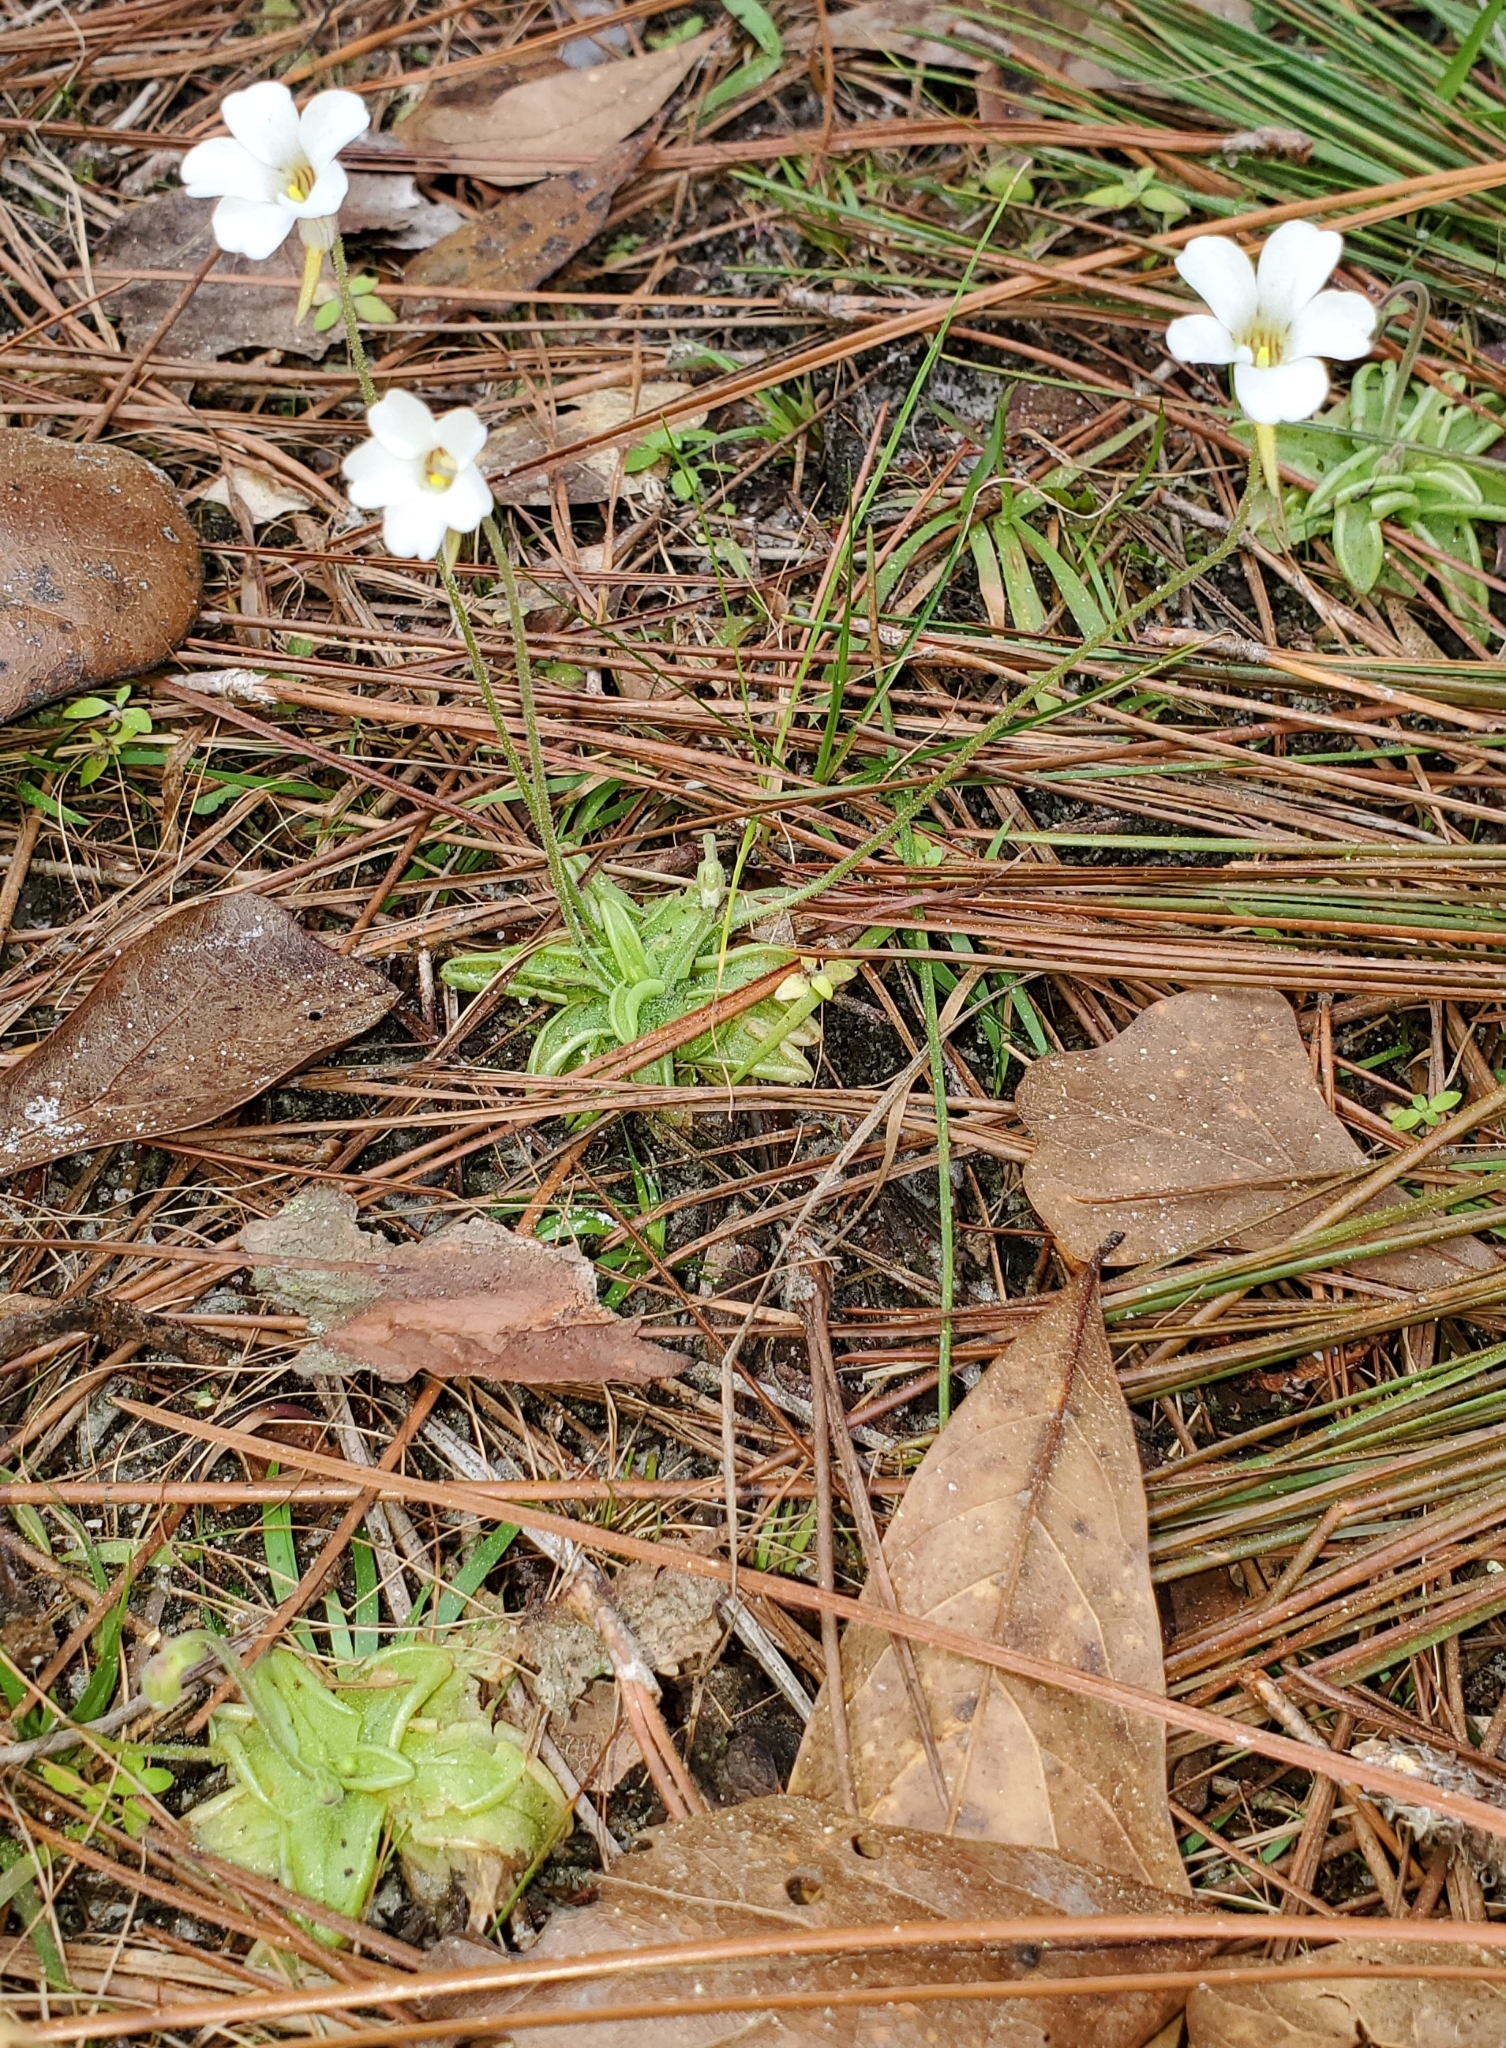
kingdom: Plantae
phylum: Tracheophyta
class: Magnoliopsida
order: Lamiales
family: Lentibulariaceae
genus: Pinguicula
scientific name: Pinguicula pumila
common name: Small butterwort
